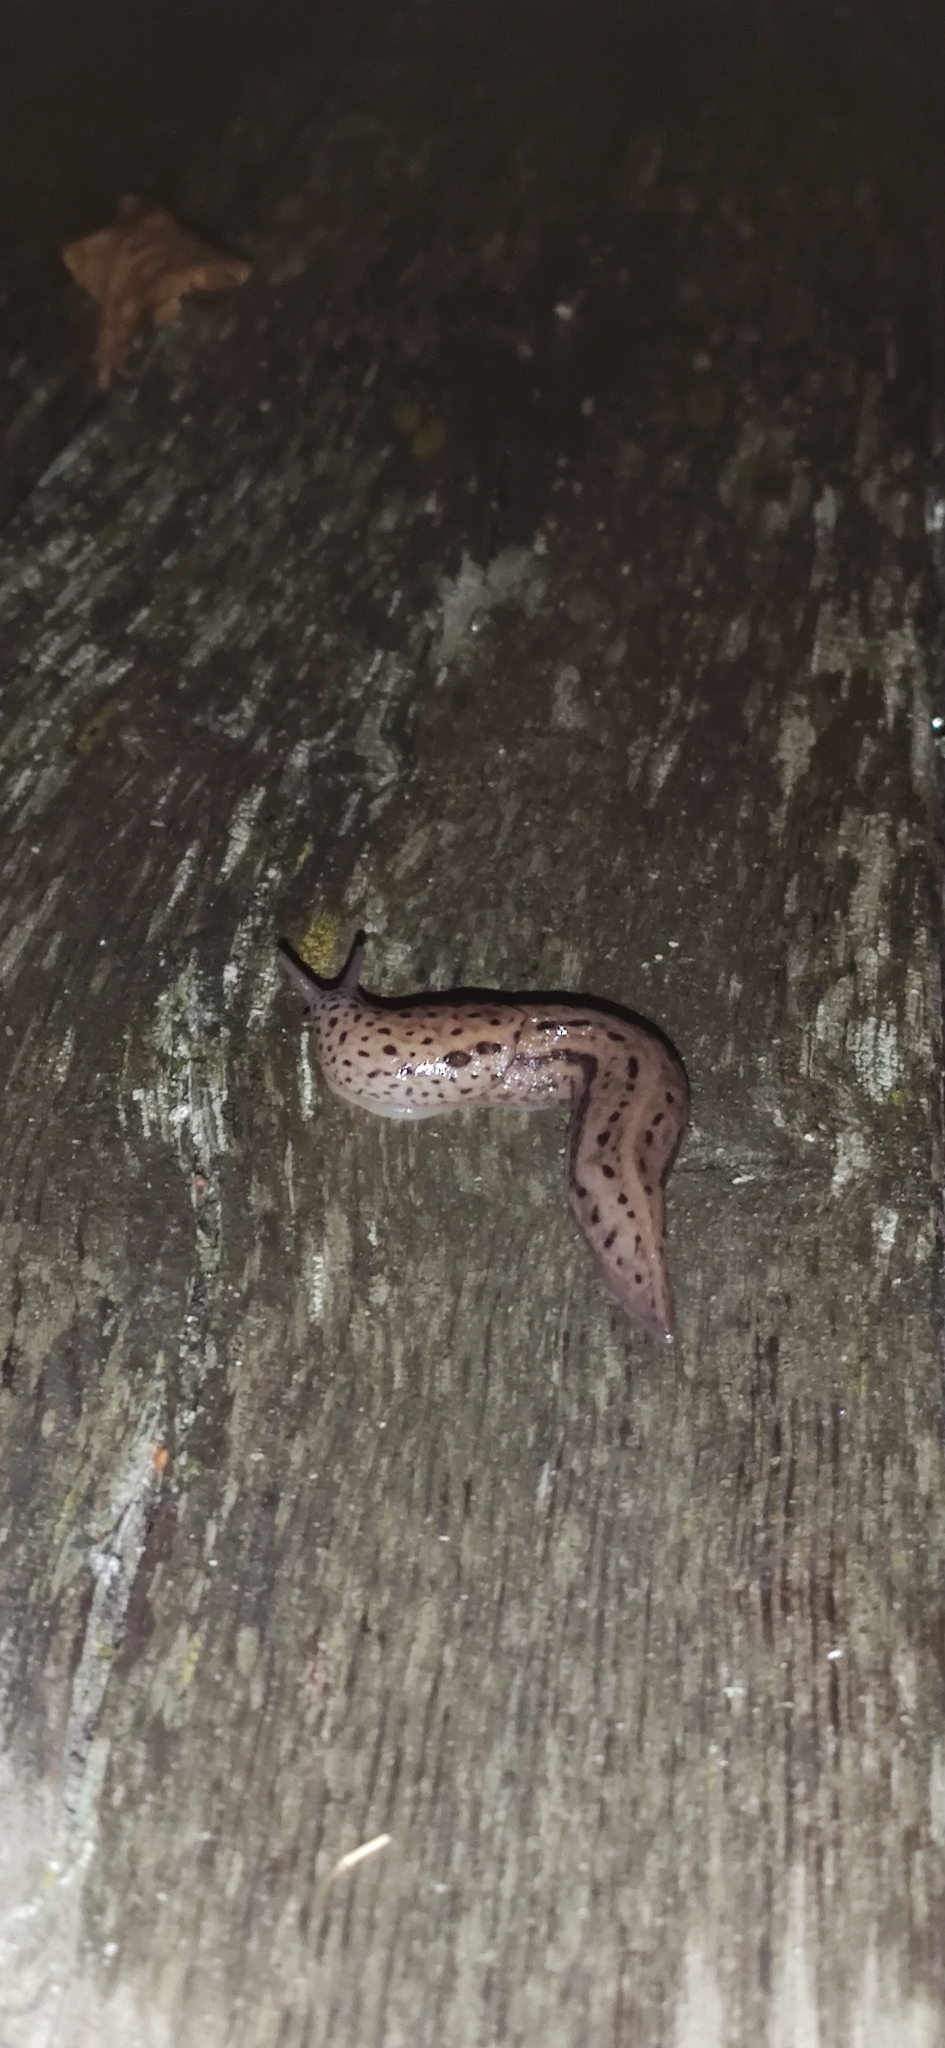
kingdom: Animalia
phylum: Mollusca
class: Gastropoda
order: Stylommatophora
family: Limacidae
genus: Limax
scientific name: Limax maximus
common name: Great grey slug
